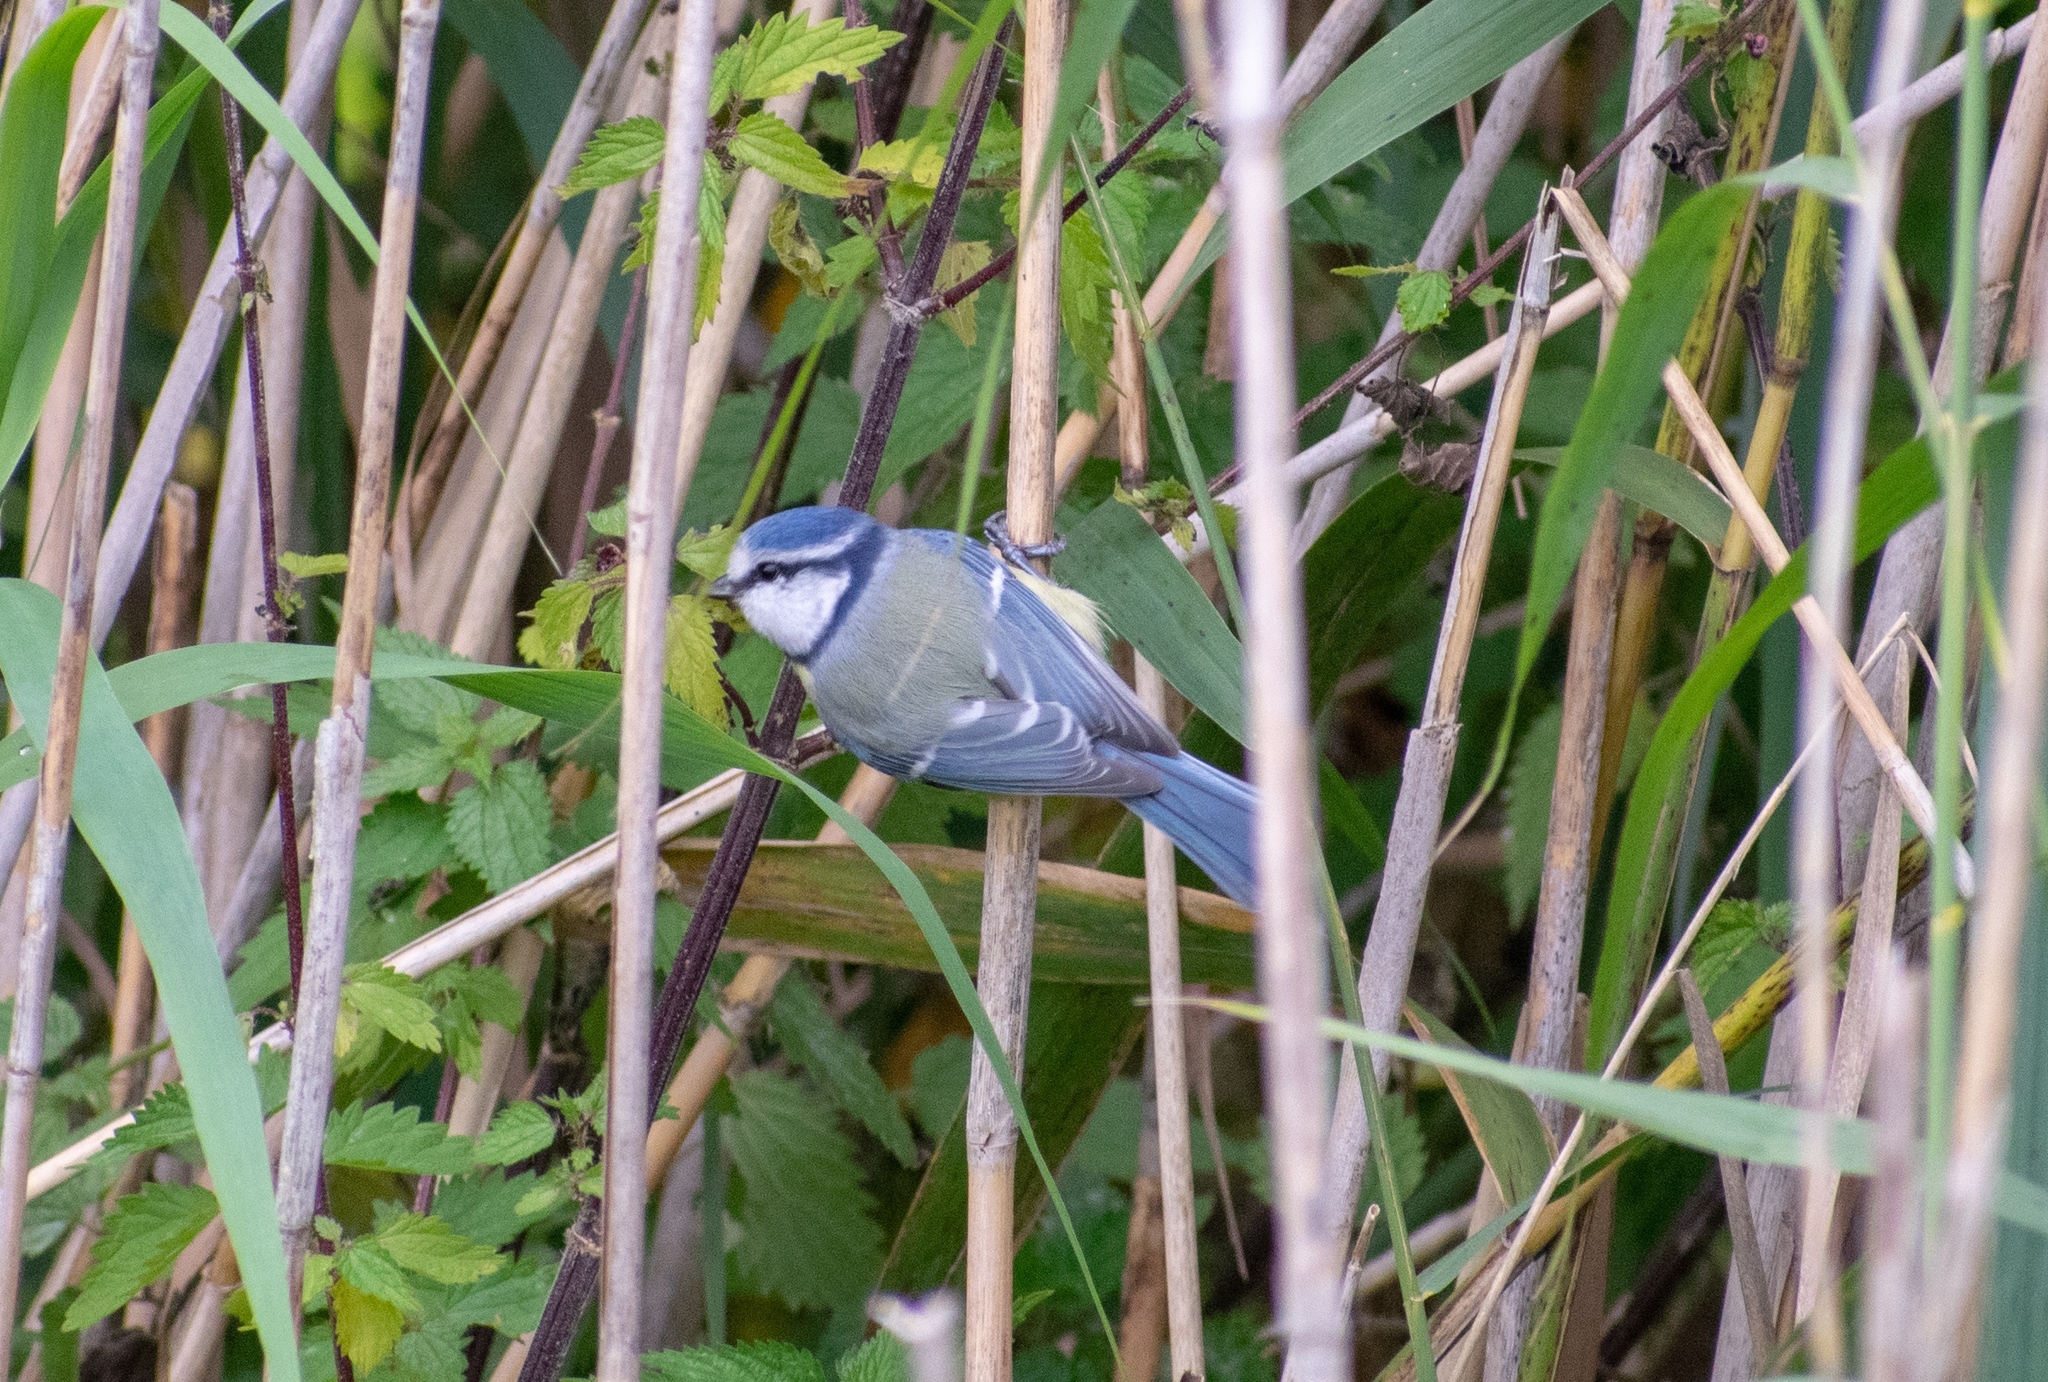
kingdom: Animalia
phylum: Chordata
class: Aves
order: Passeriformes
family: Paridae
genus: Cyanistes
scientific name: Cyanistes caeruleus
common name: Eurasian blue tit
